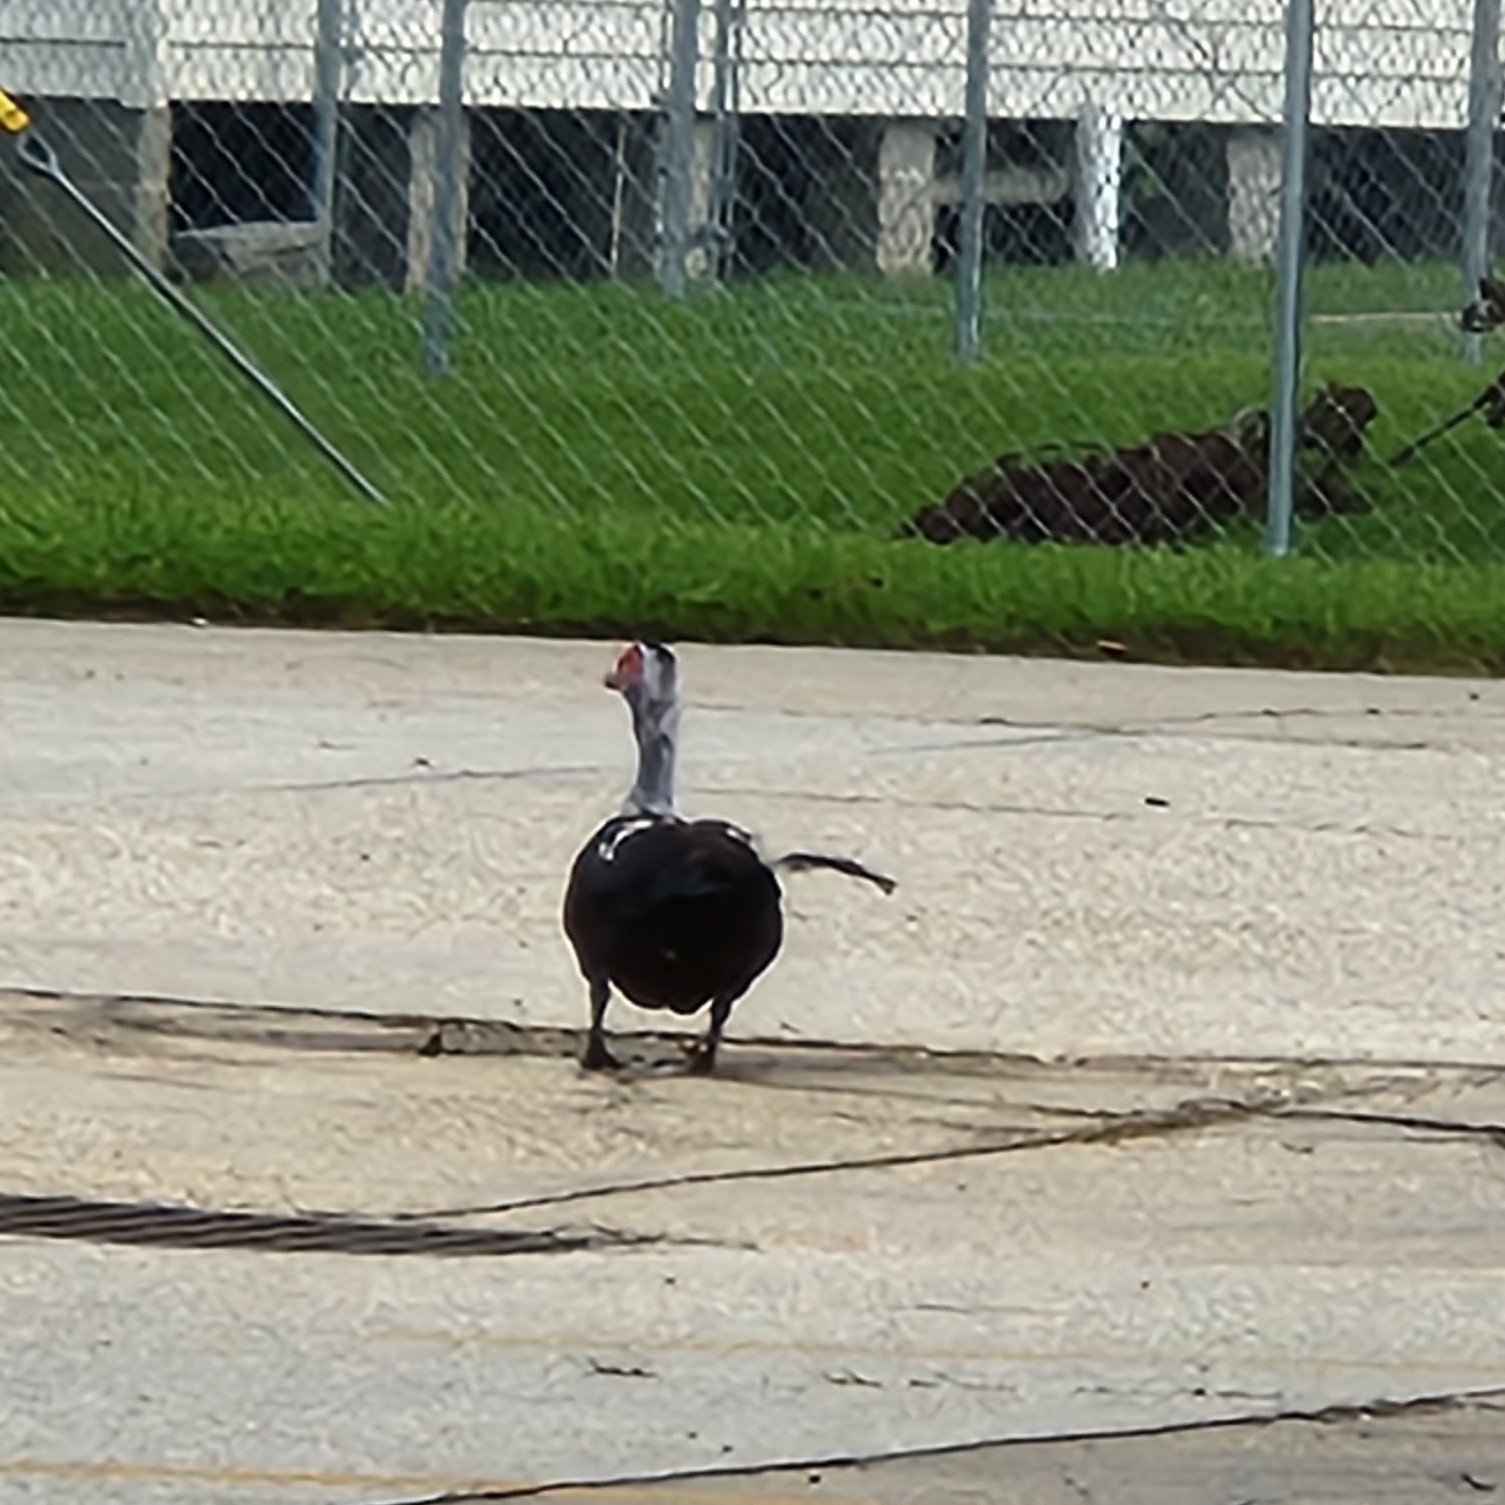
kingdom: Animalia
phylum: Chordata
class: Aves
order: Anseriformes
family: Anatidae
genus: Cairina
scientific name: Cairina moschata
